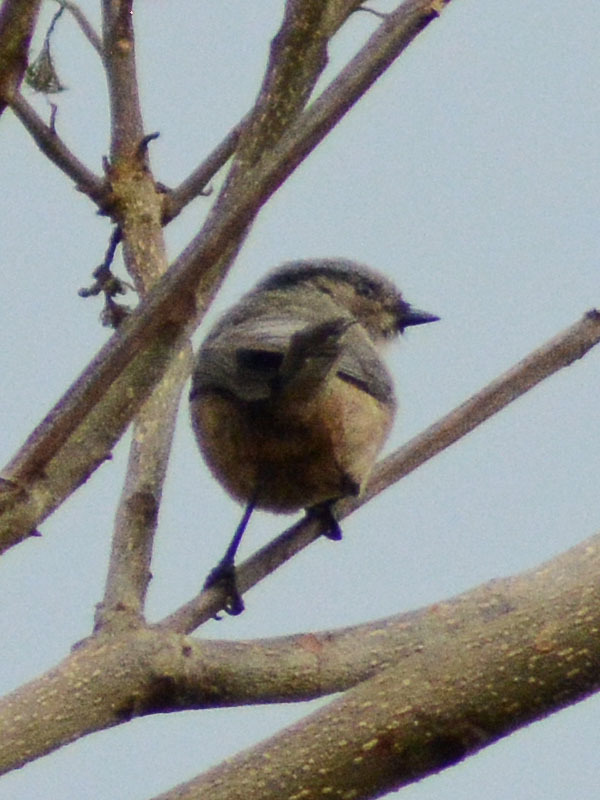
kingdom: Animalia
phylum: Chordata
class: Aves
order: Passeriformes
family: Aegithalidae
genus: Psaltriparus
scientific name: Psaltriparus minimus
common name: American bushtit
